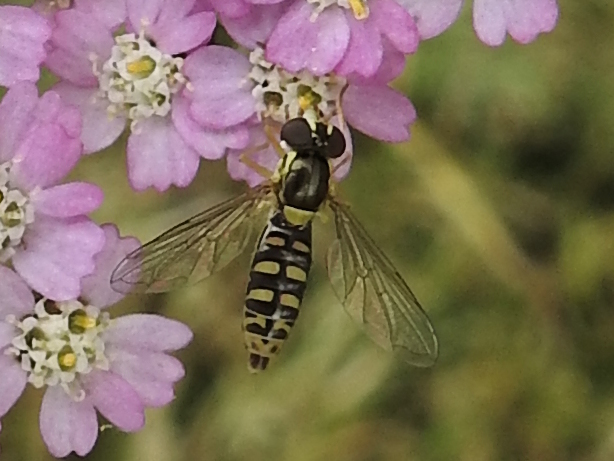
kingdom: Animalia
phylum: Arthropoda
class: Insecta
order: Diptera
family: Syrphidae
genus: Sphaerophoria
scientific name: Sphaerophoria
